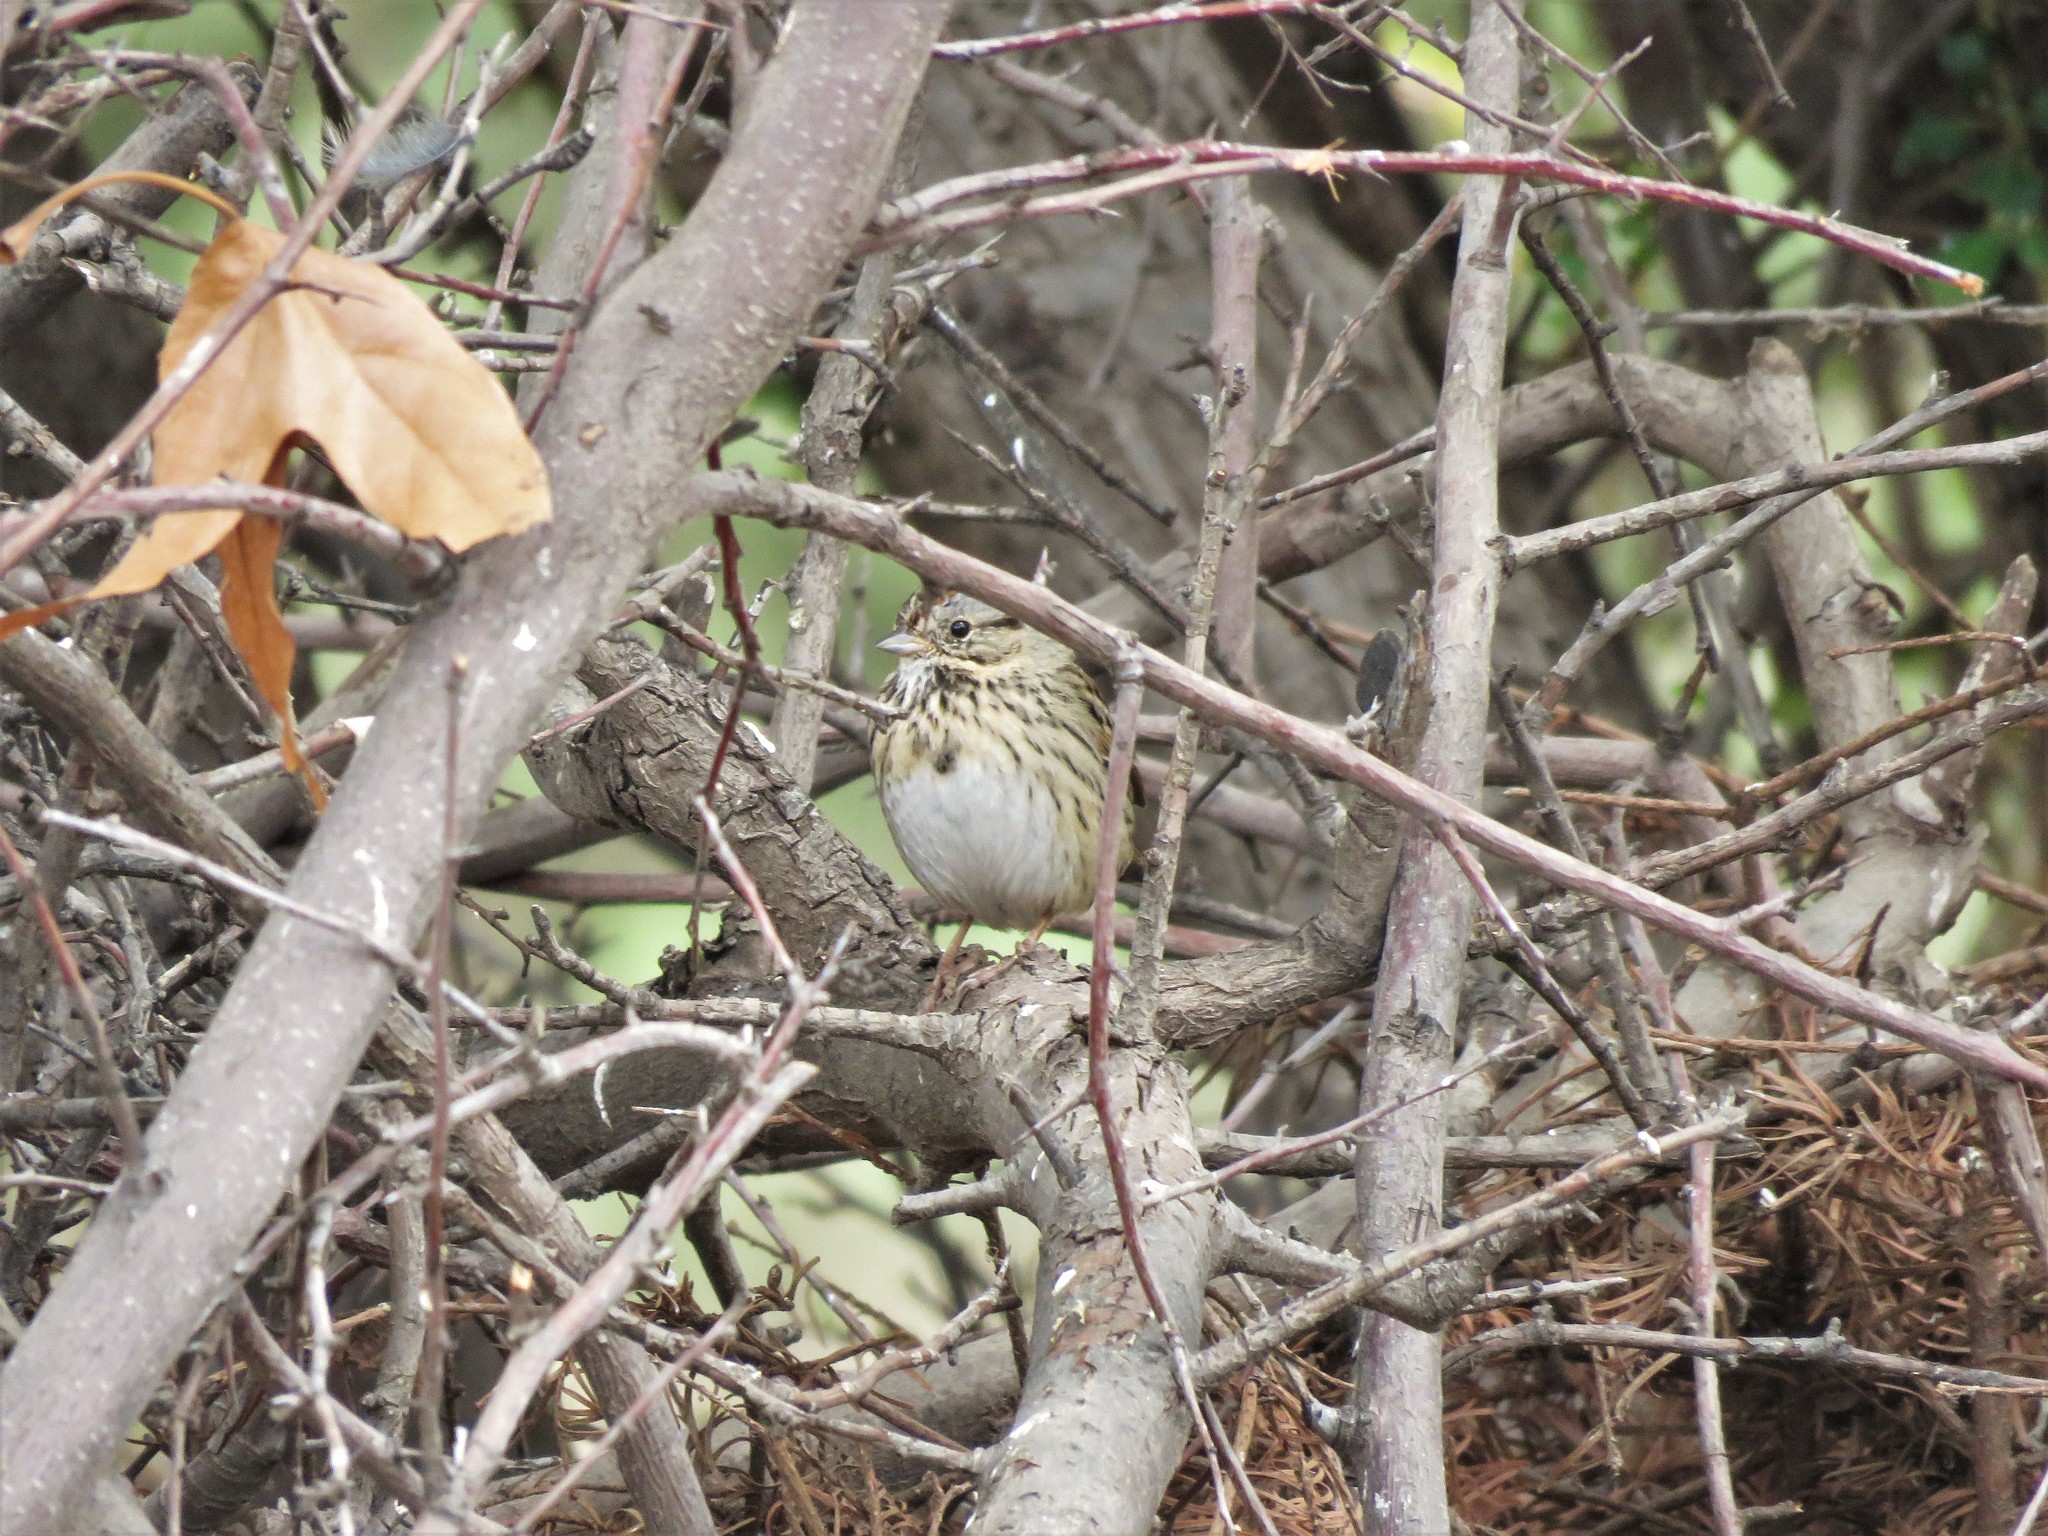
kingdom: Animalia
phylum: Chordata
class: Aves
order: Passeriformes
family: Passerellidae
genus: Melospiza
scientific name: Melospiza lincolnii
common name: Lincoln's sparrow
